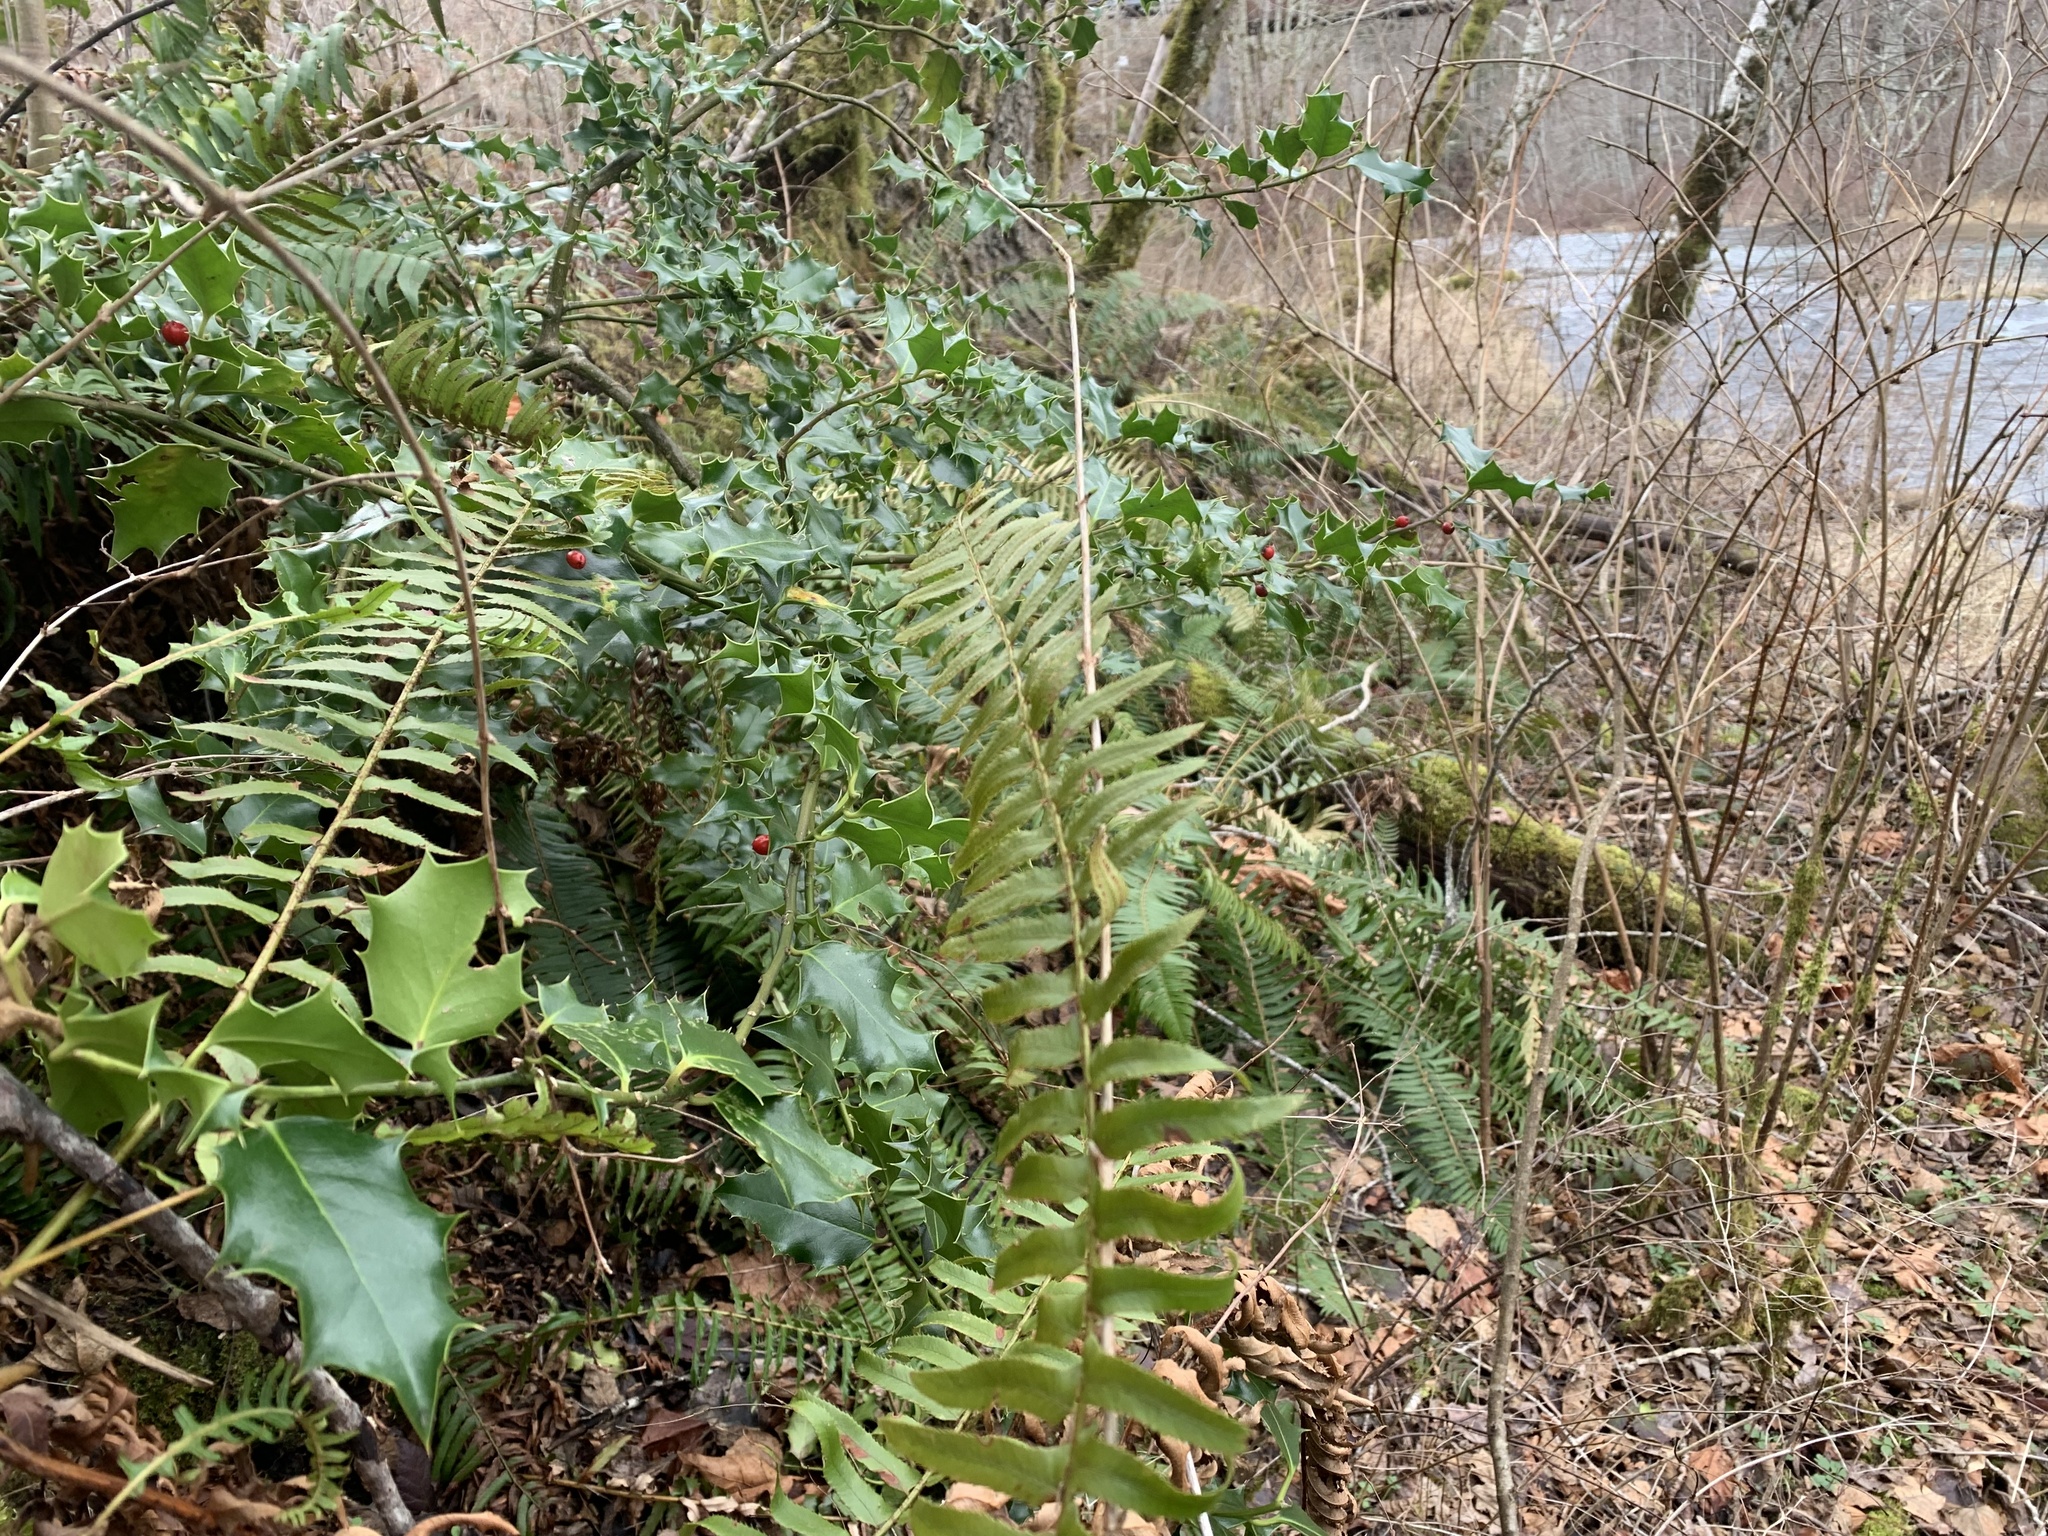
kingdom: Plantae
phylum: Tracheophyta
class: Magnoliopsida
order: Aquifoliales
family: Aquifoliaceae
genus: Ilex
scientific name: Ilex aquifolium
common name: English holly
